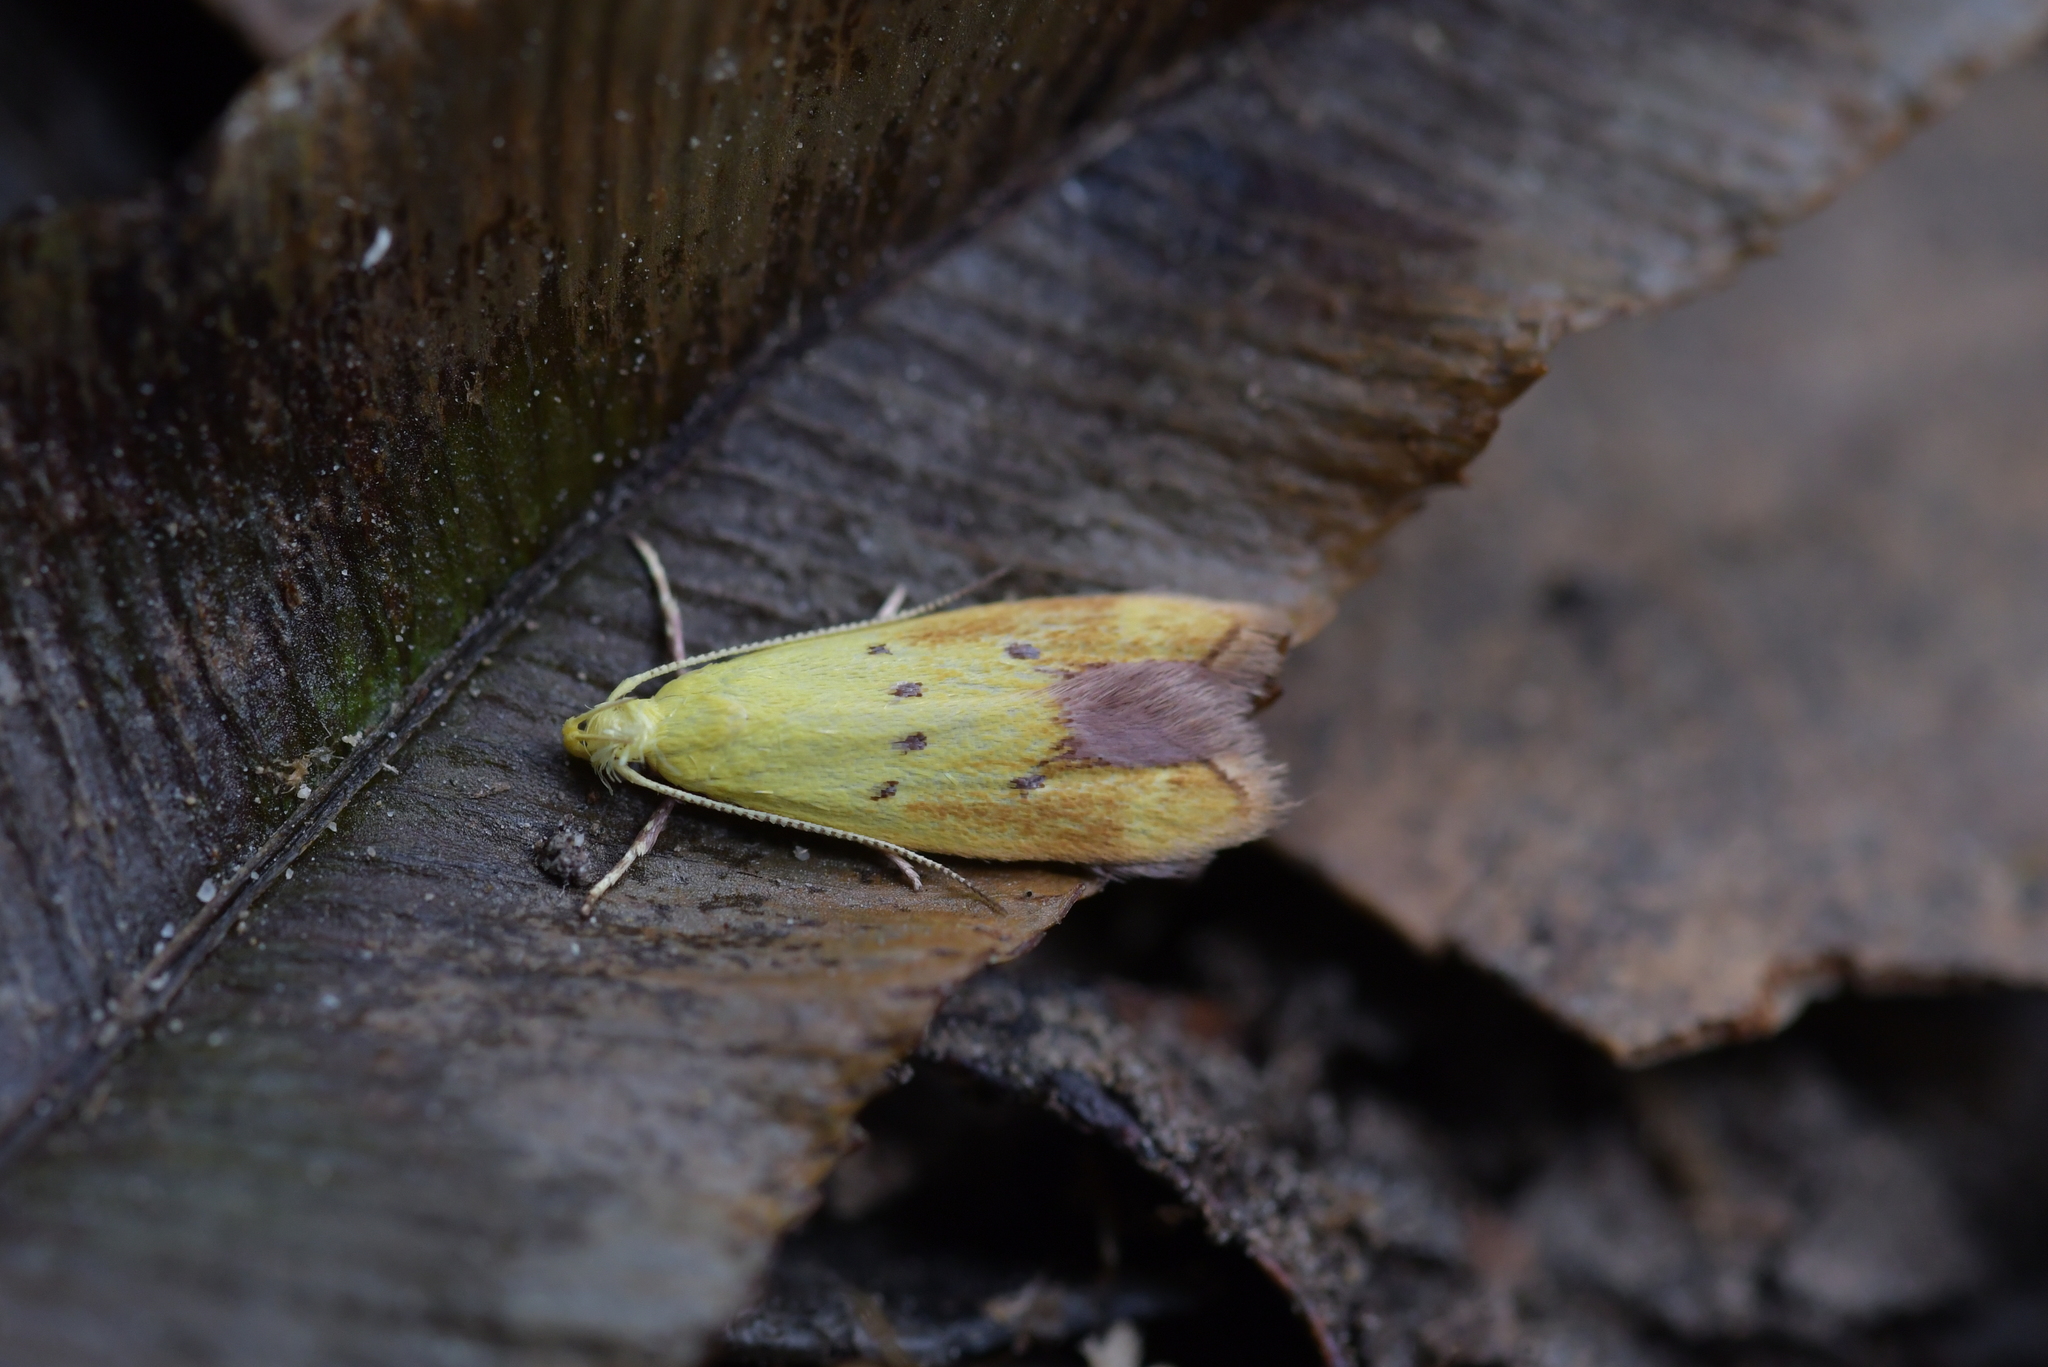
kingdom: Animalia
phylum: Arthropoda
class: Insecta
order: Lepidoptera
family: Oecophoridae
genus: Gymnobathra
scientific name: Gymnobathra flavidella
